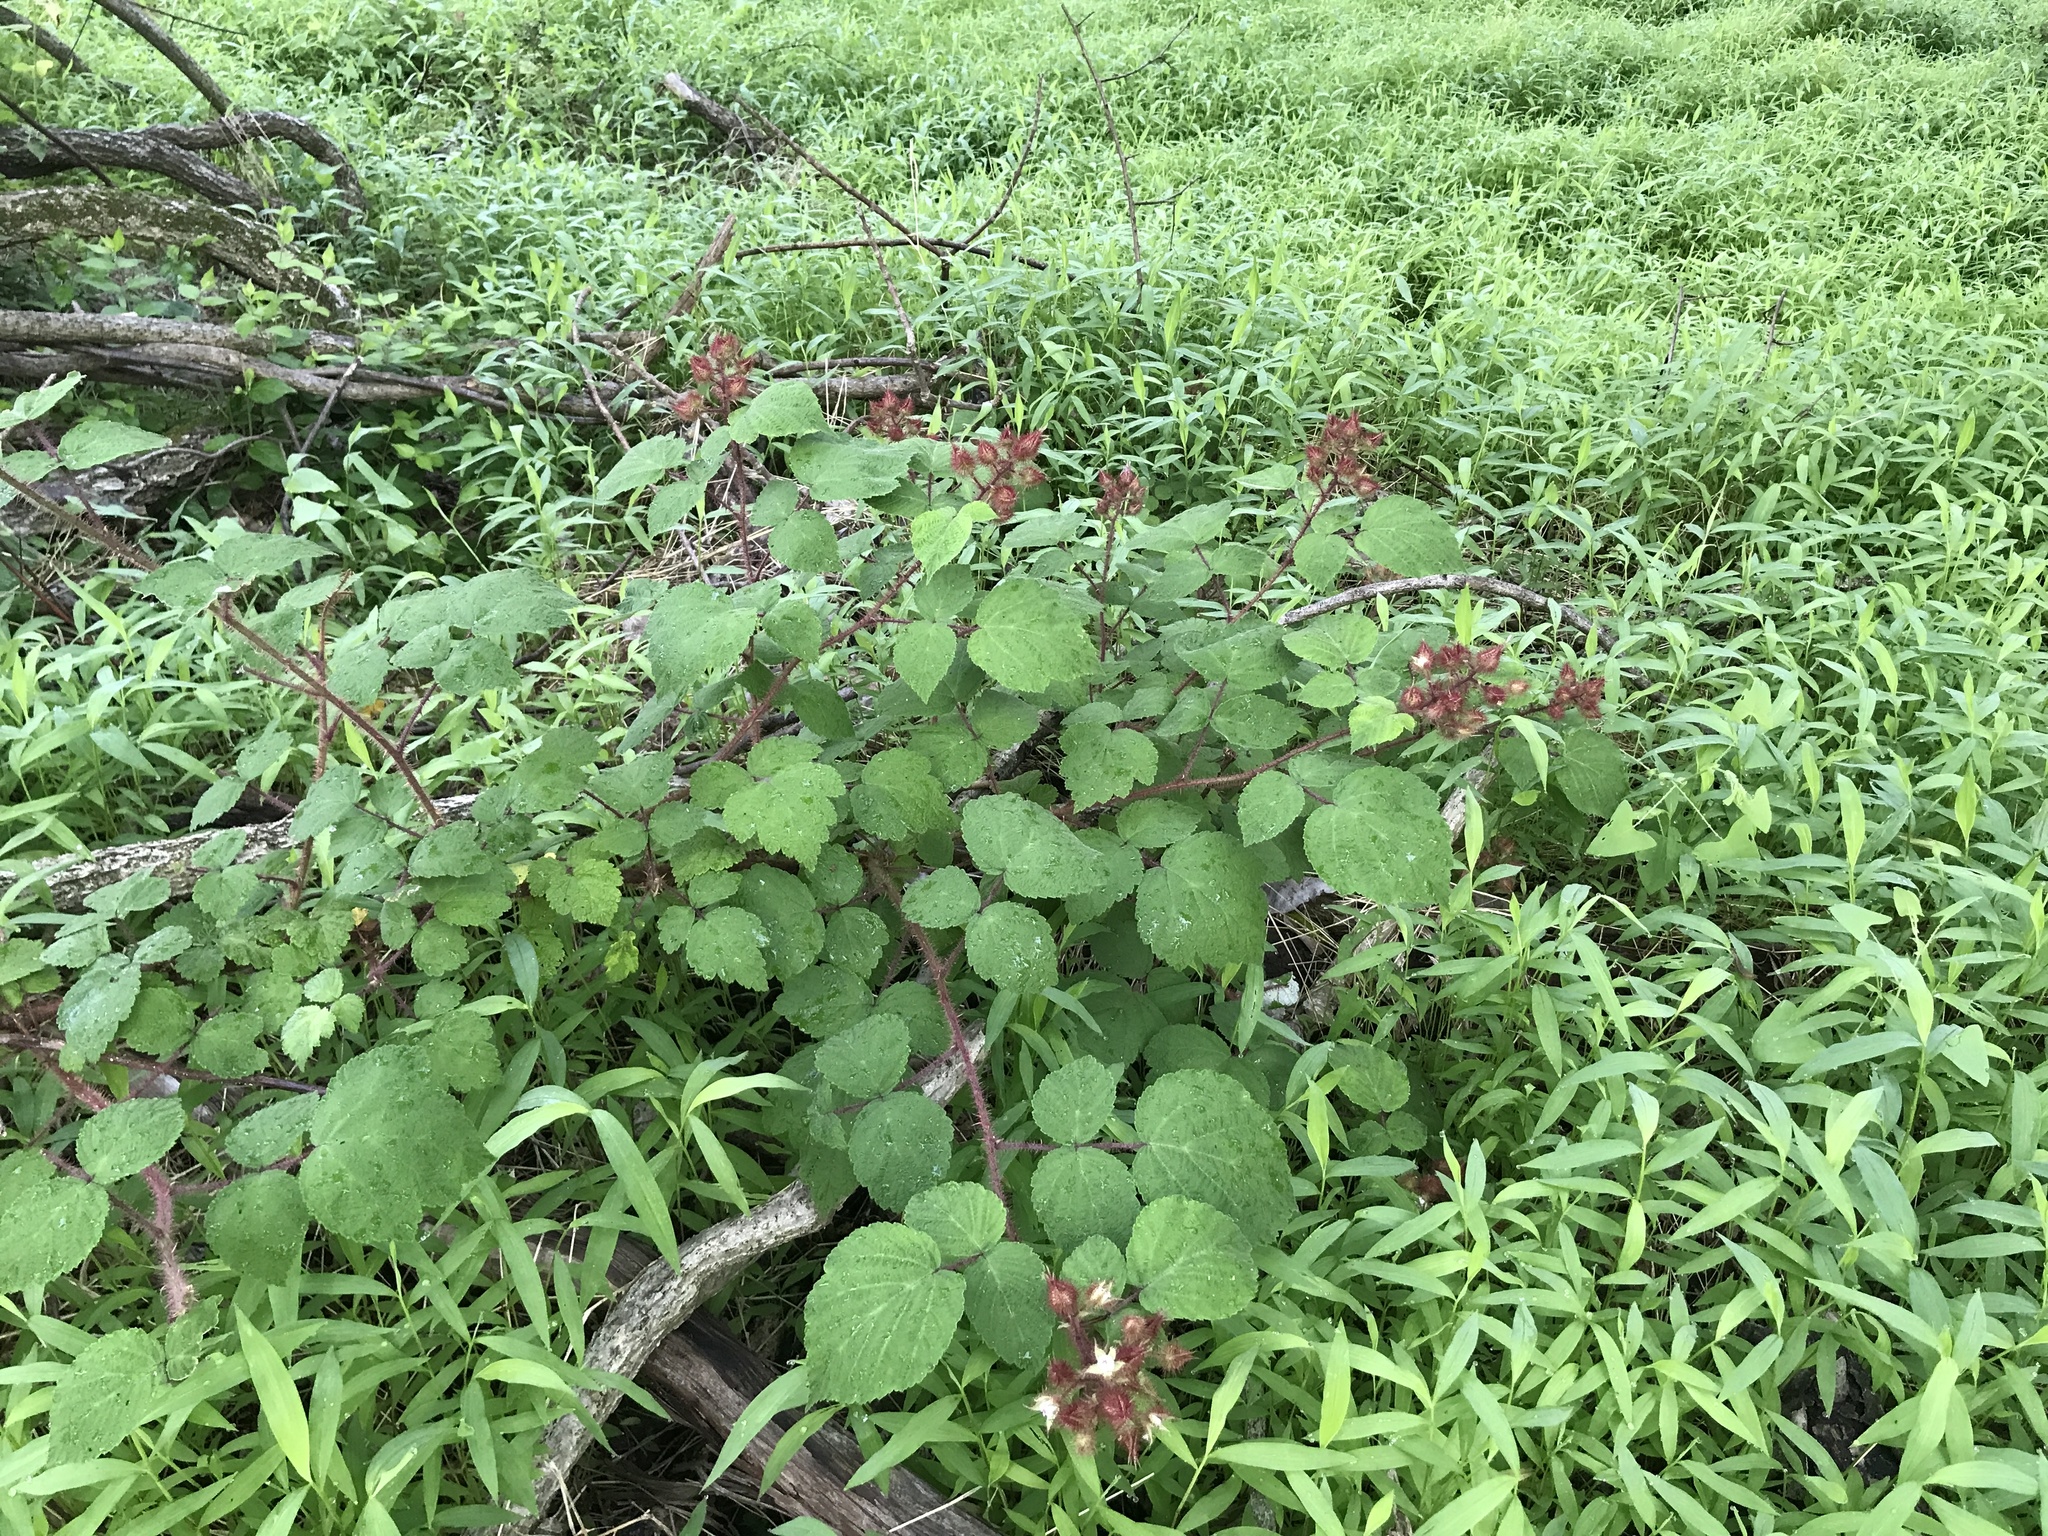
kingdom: Plantae
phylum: Tracheophyta
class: Magnoliopsida
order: Rosales
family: Rosaceae
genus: Rubus
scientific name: Rubus phoenicolasius
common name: Japanese wineberry
